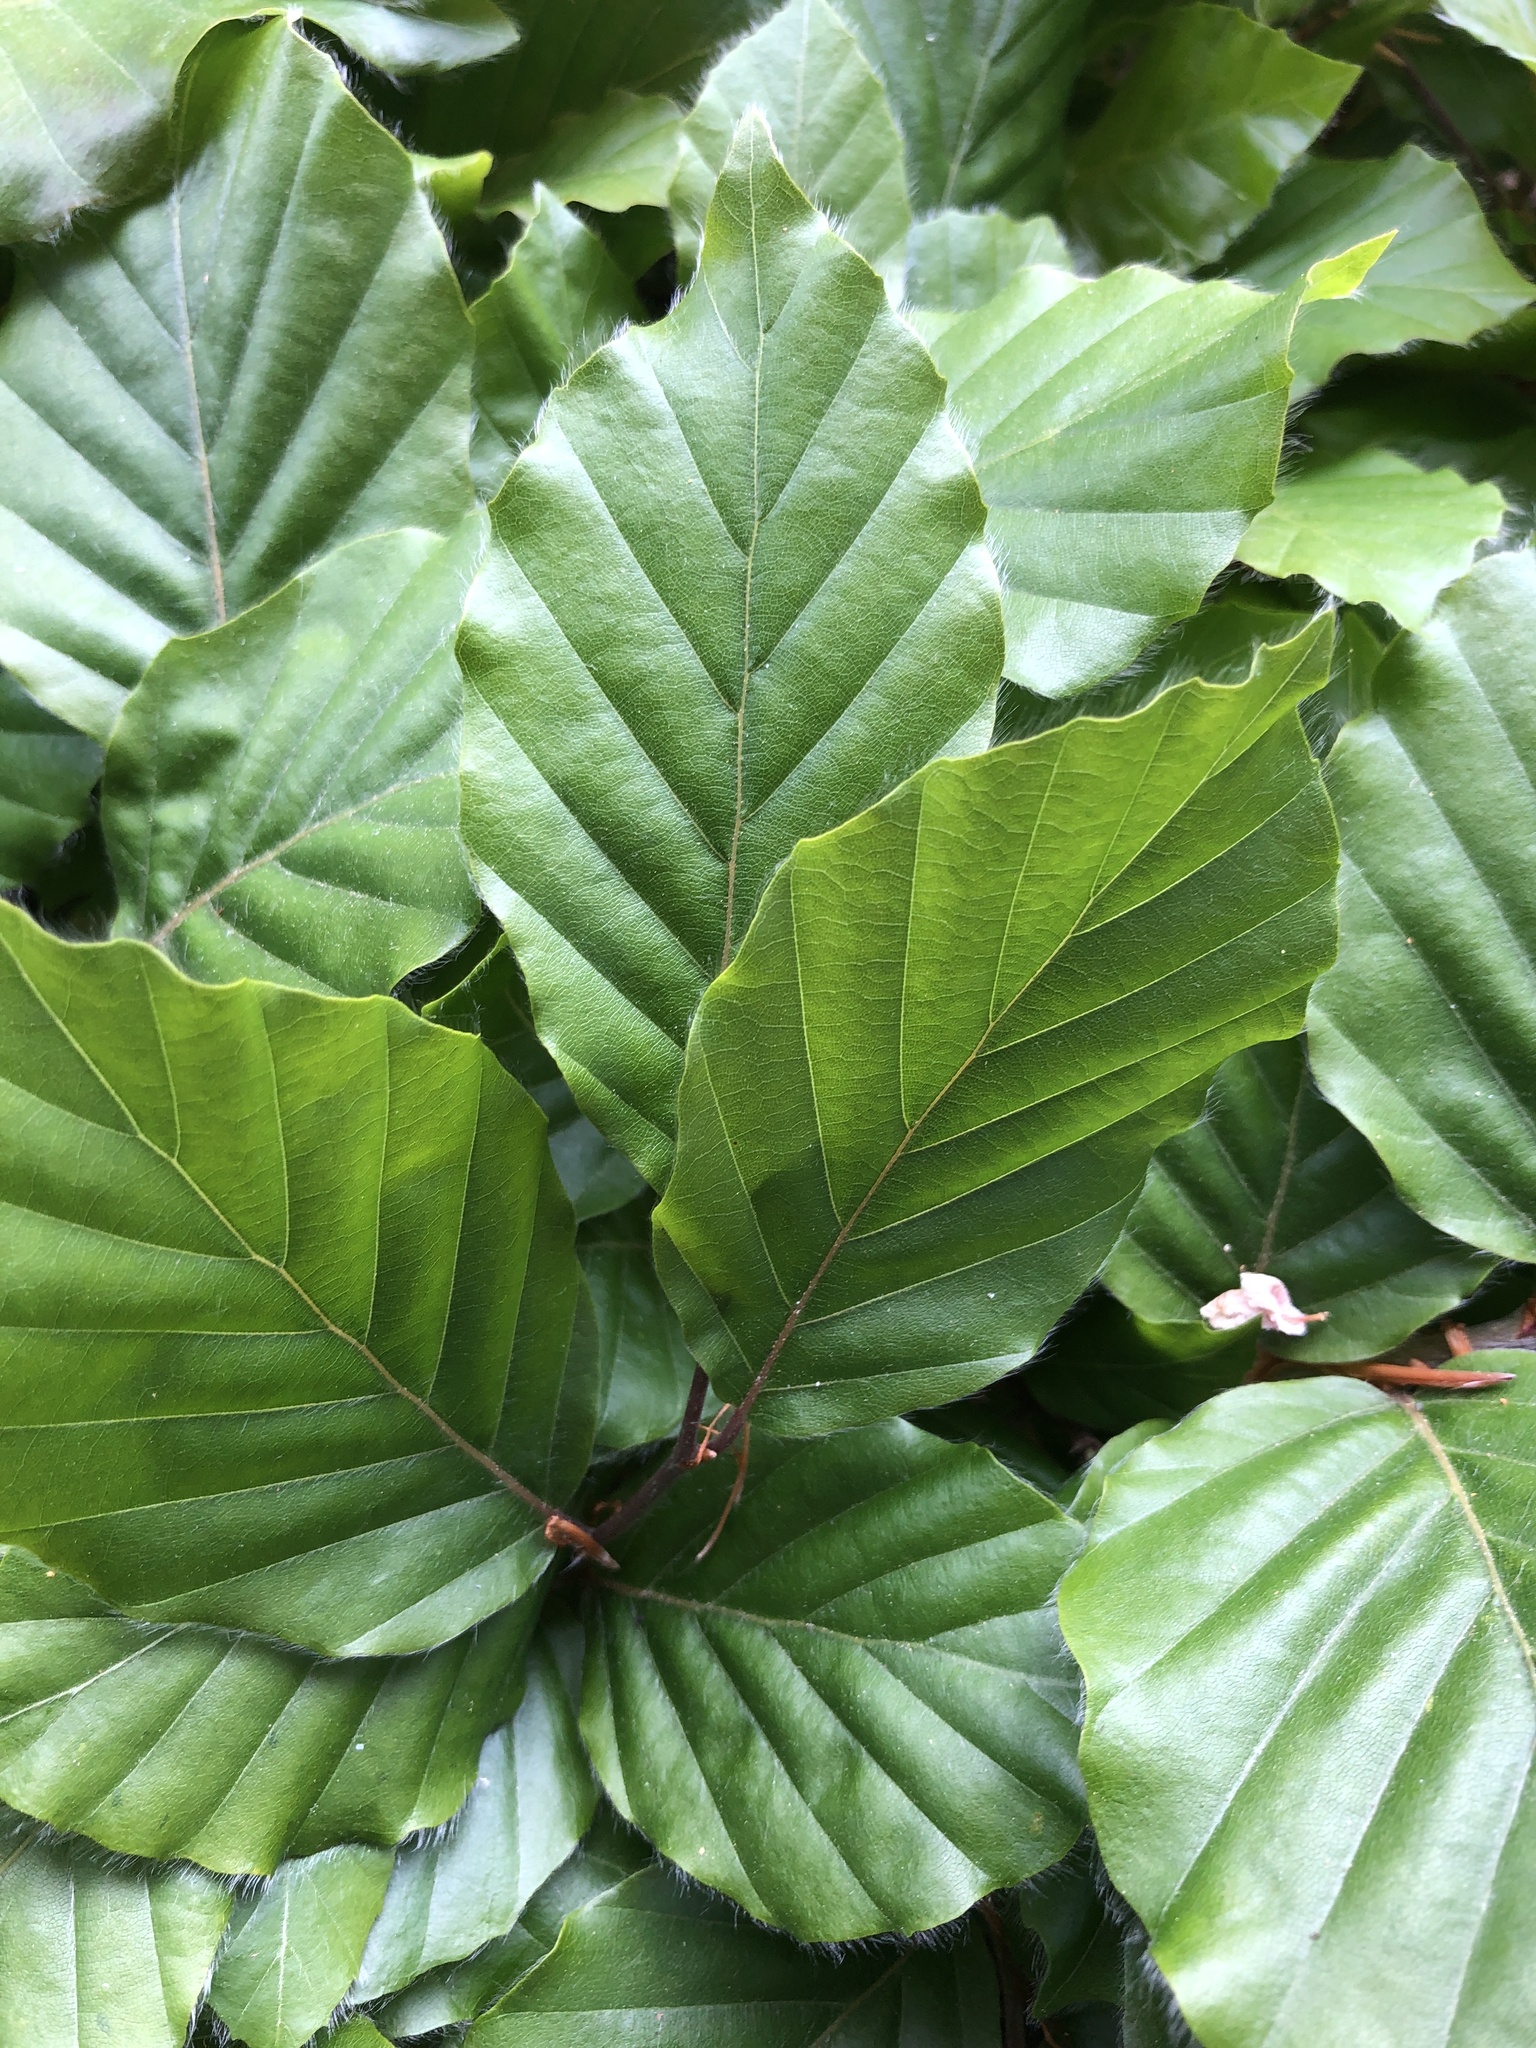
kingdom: Plantae
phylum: Tracheophyta
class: Magnoliopsida
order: Fagales
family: Fagaceae
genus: Fagus
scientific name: Fagus sylvatica
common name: Beech
